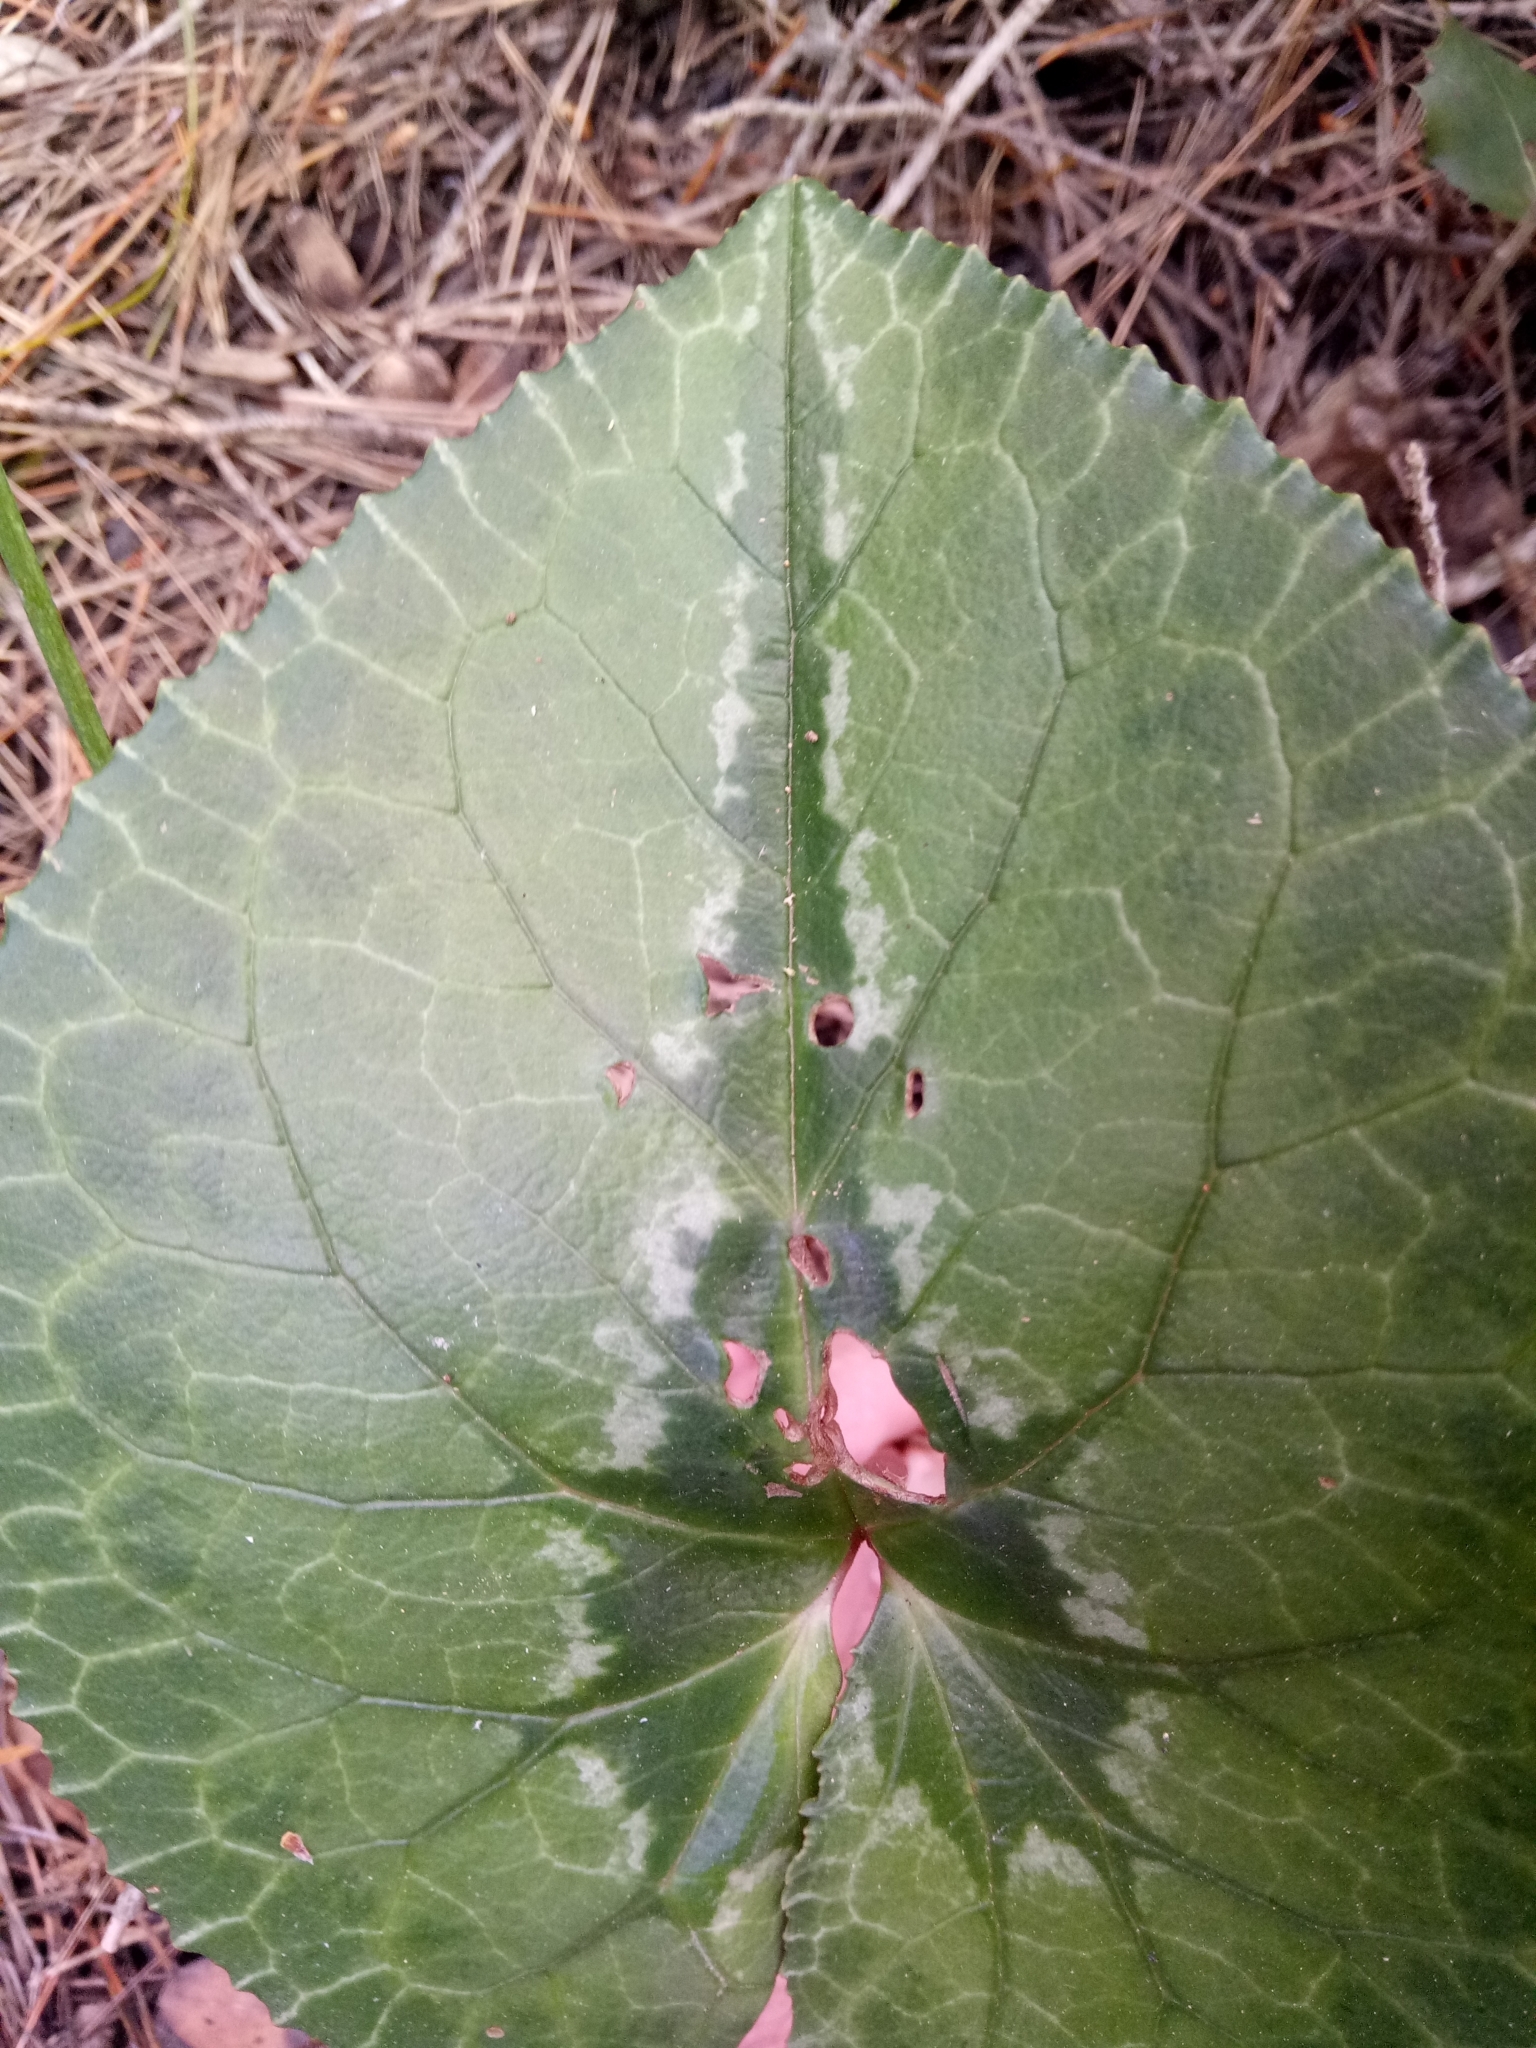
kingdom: Plantae
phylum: Tracheophyta
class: Magnoliopsida
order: Ericales
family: Primulaceae
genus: Cyclamen
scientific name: Cyclamen africanum
